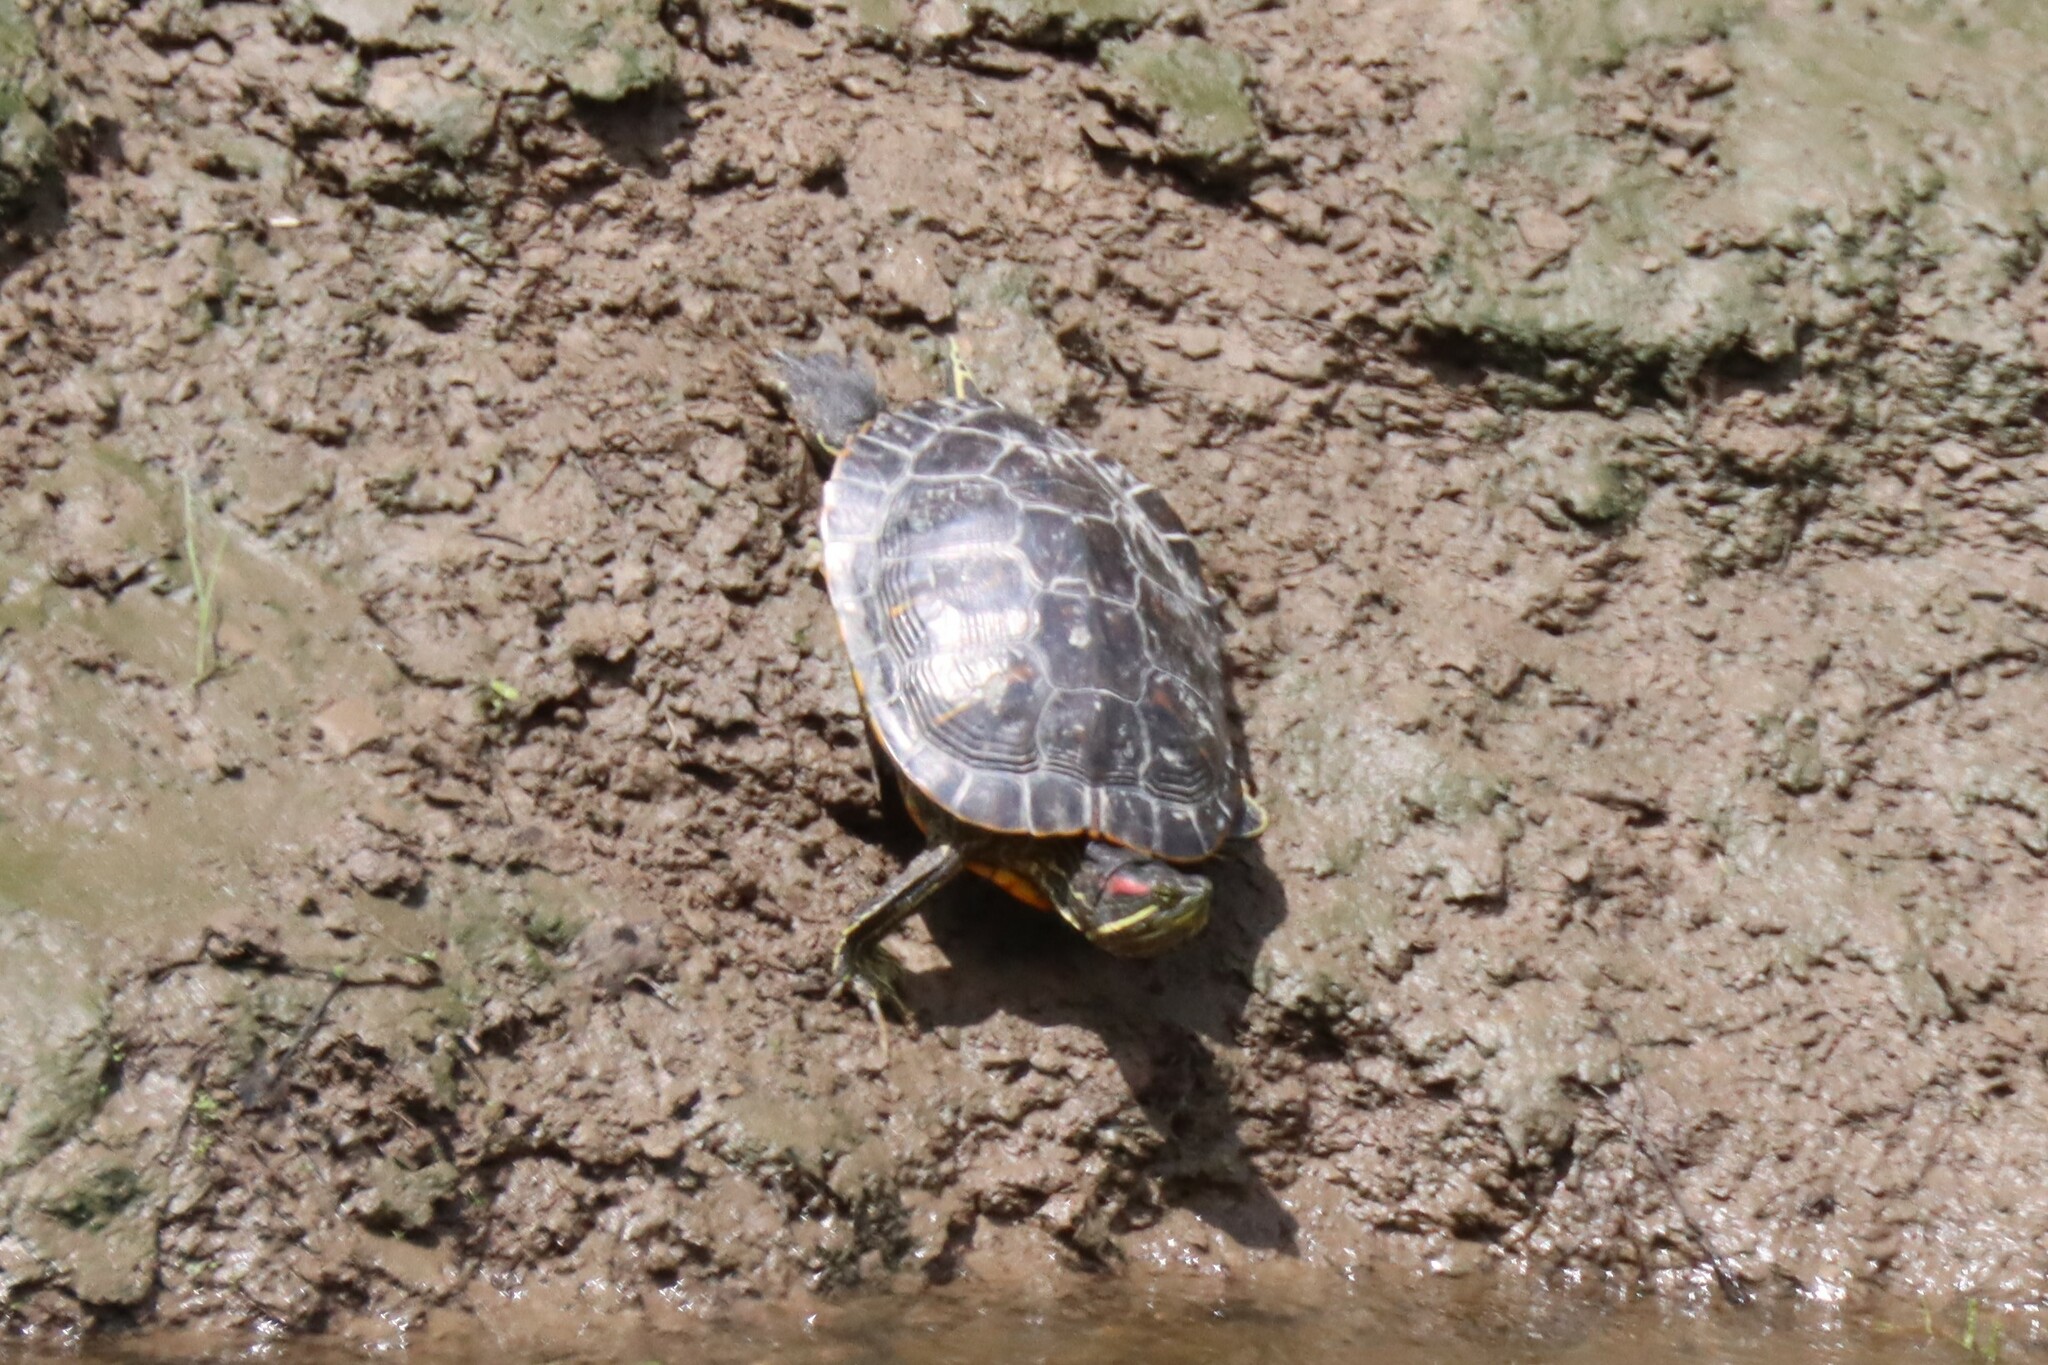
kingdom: Animalia
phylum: Chordata
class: Testudines
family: Emydidae
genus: Trachemys
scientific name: Trachemys scripta
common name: Slider
